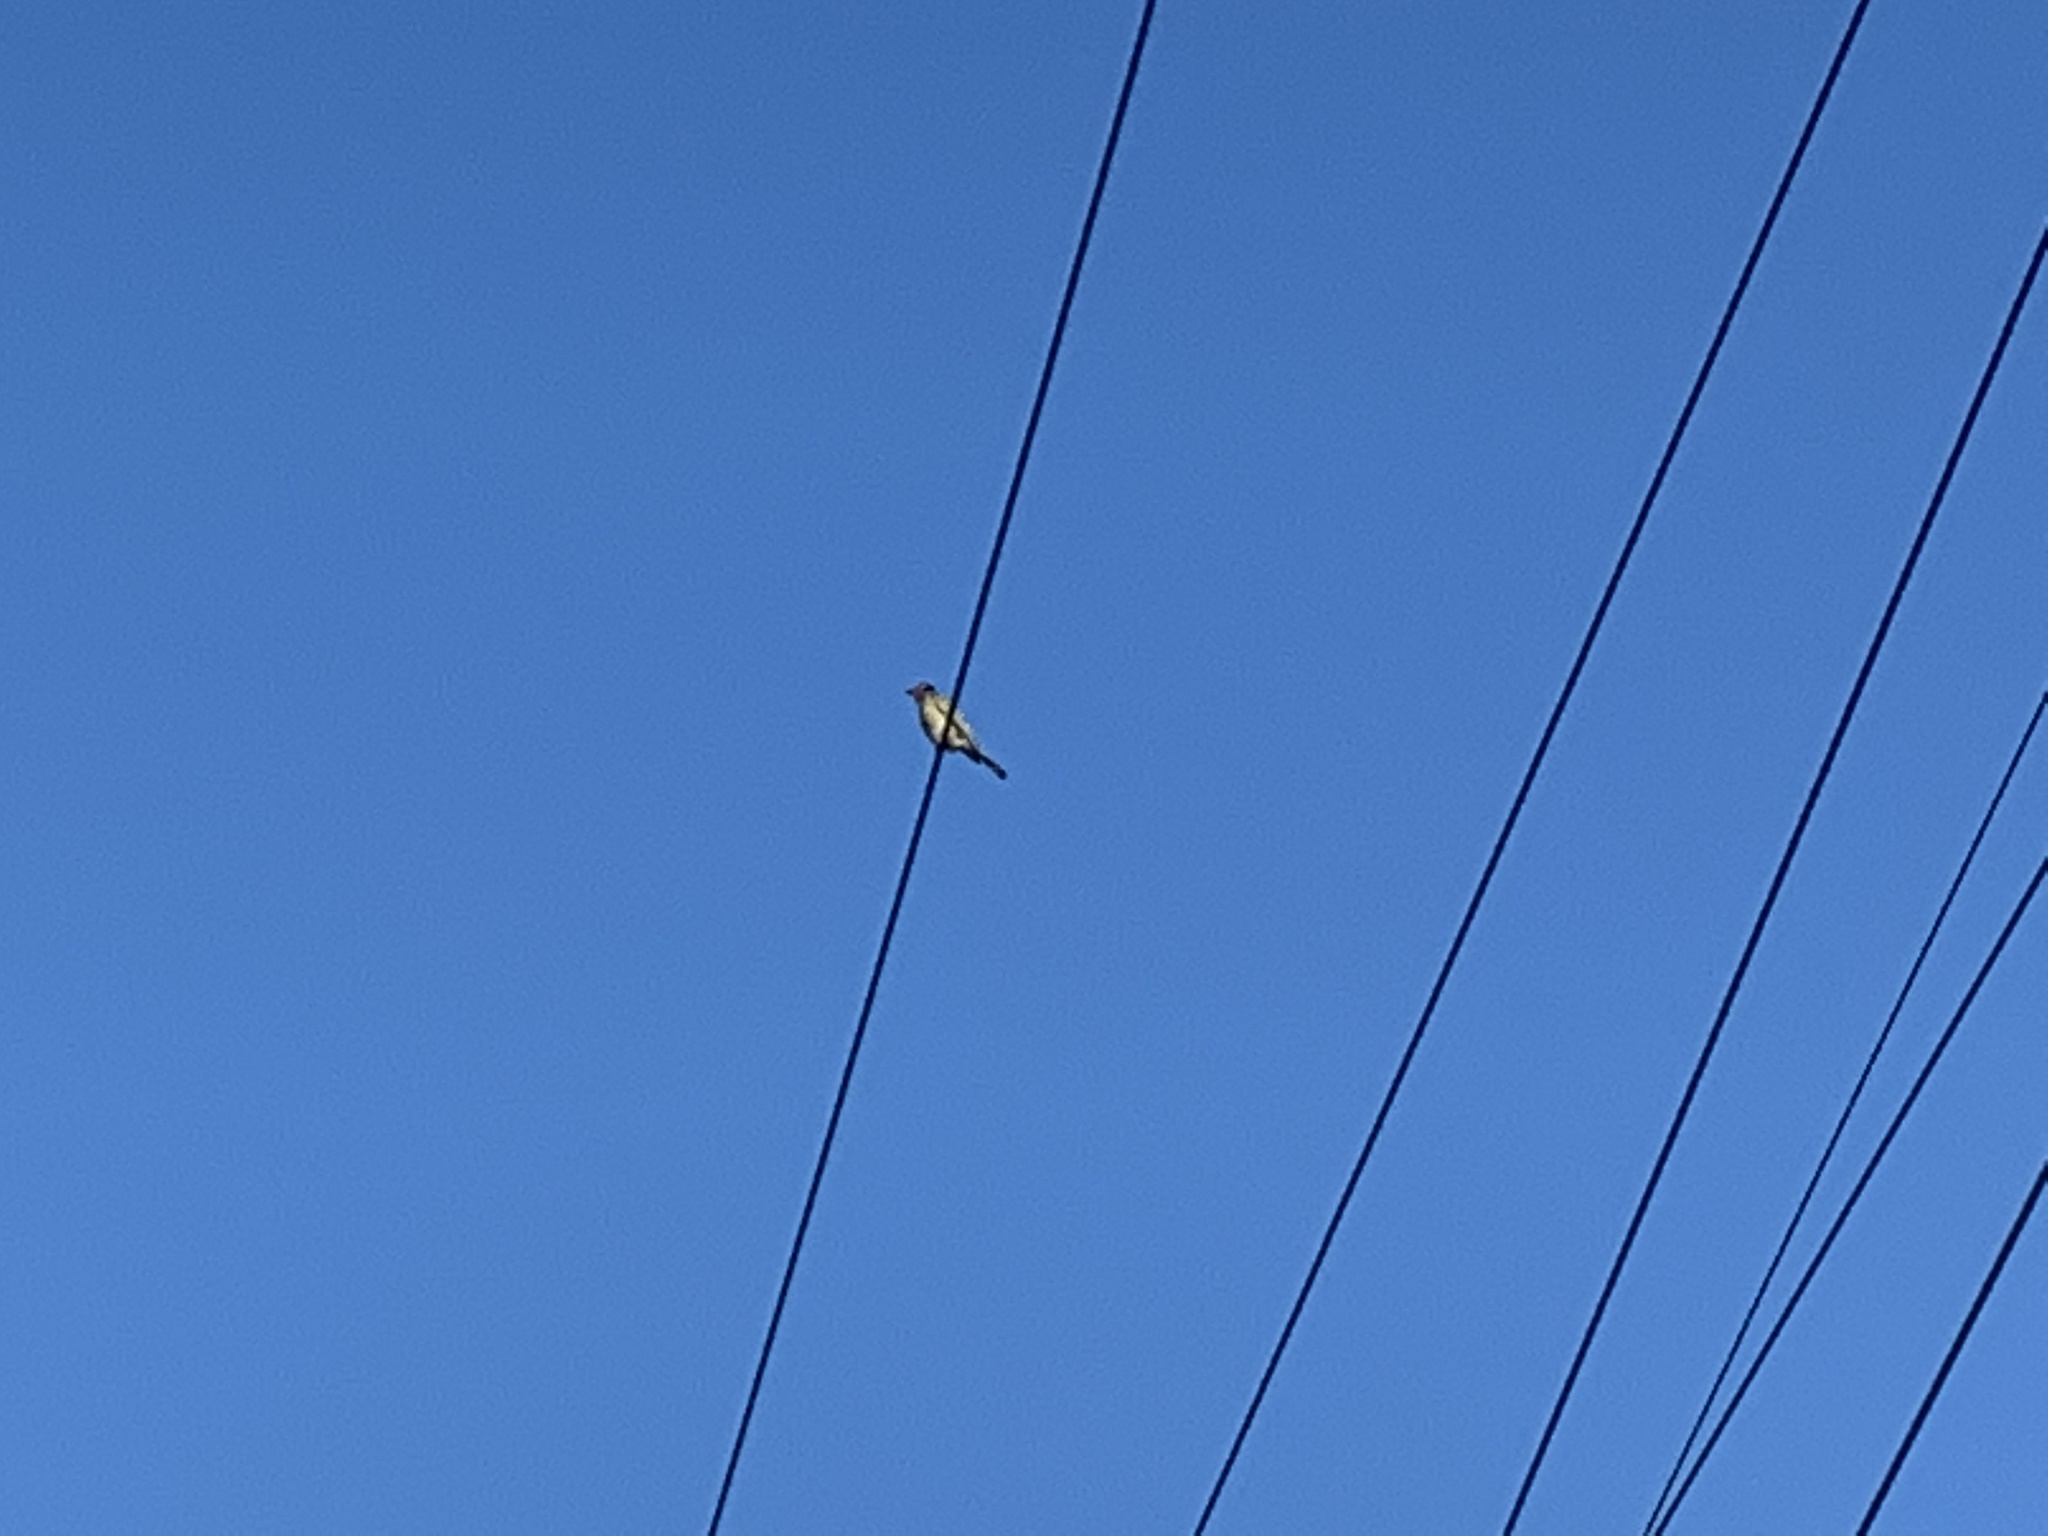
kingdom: Animalia
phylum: Chordata
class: Aves
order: Passeriformes
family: Oriolidae
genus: Sphecotheres
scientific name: Sphecotheres vieilloti
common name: Australasian figbird
